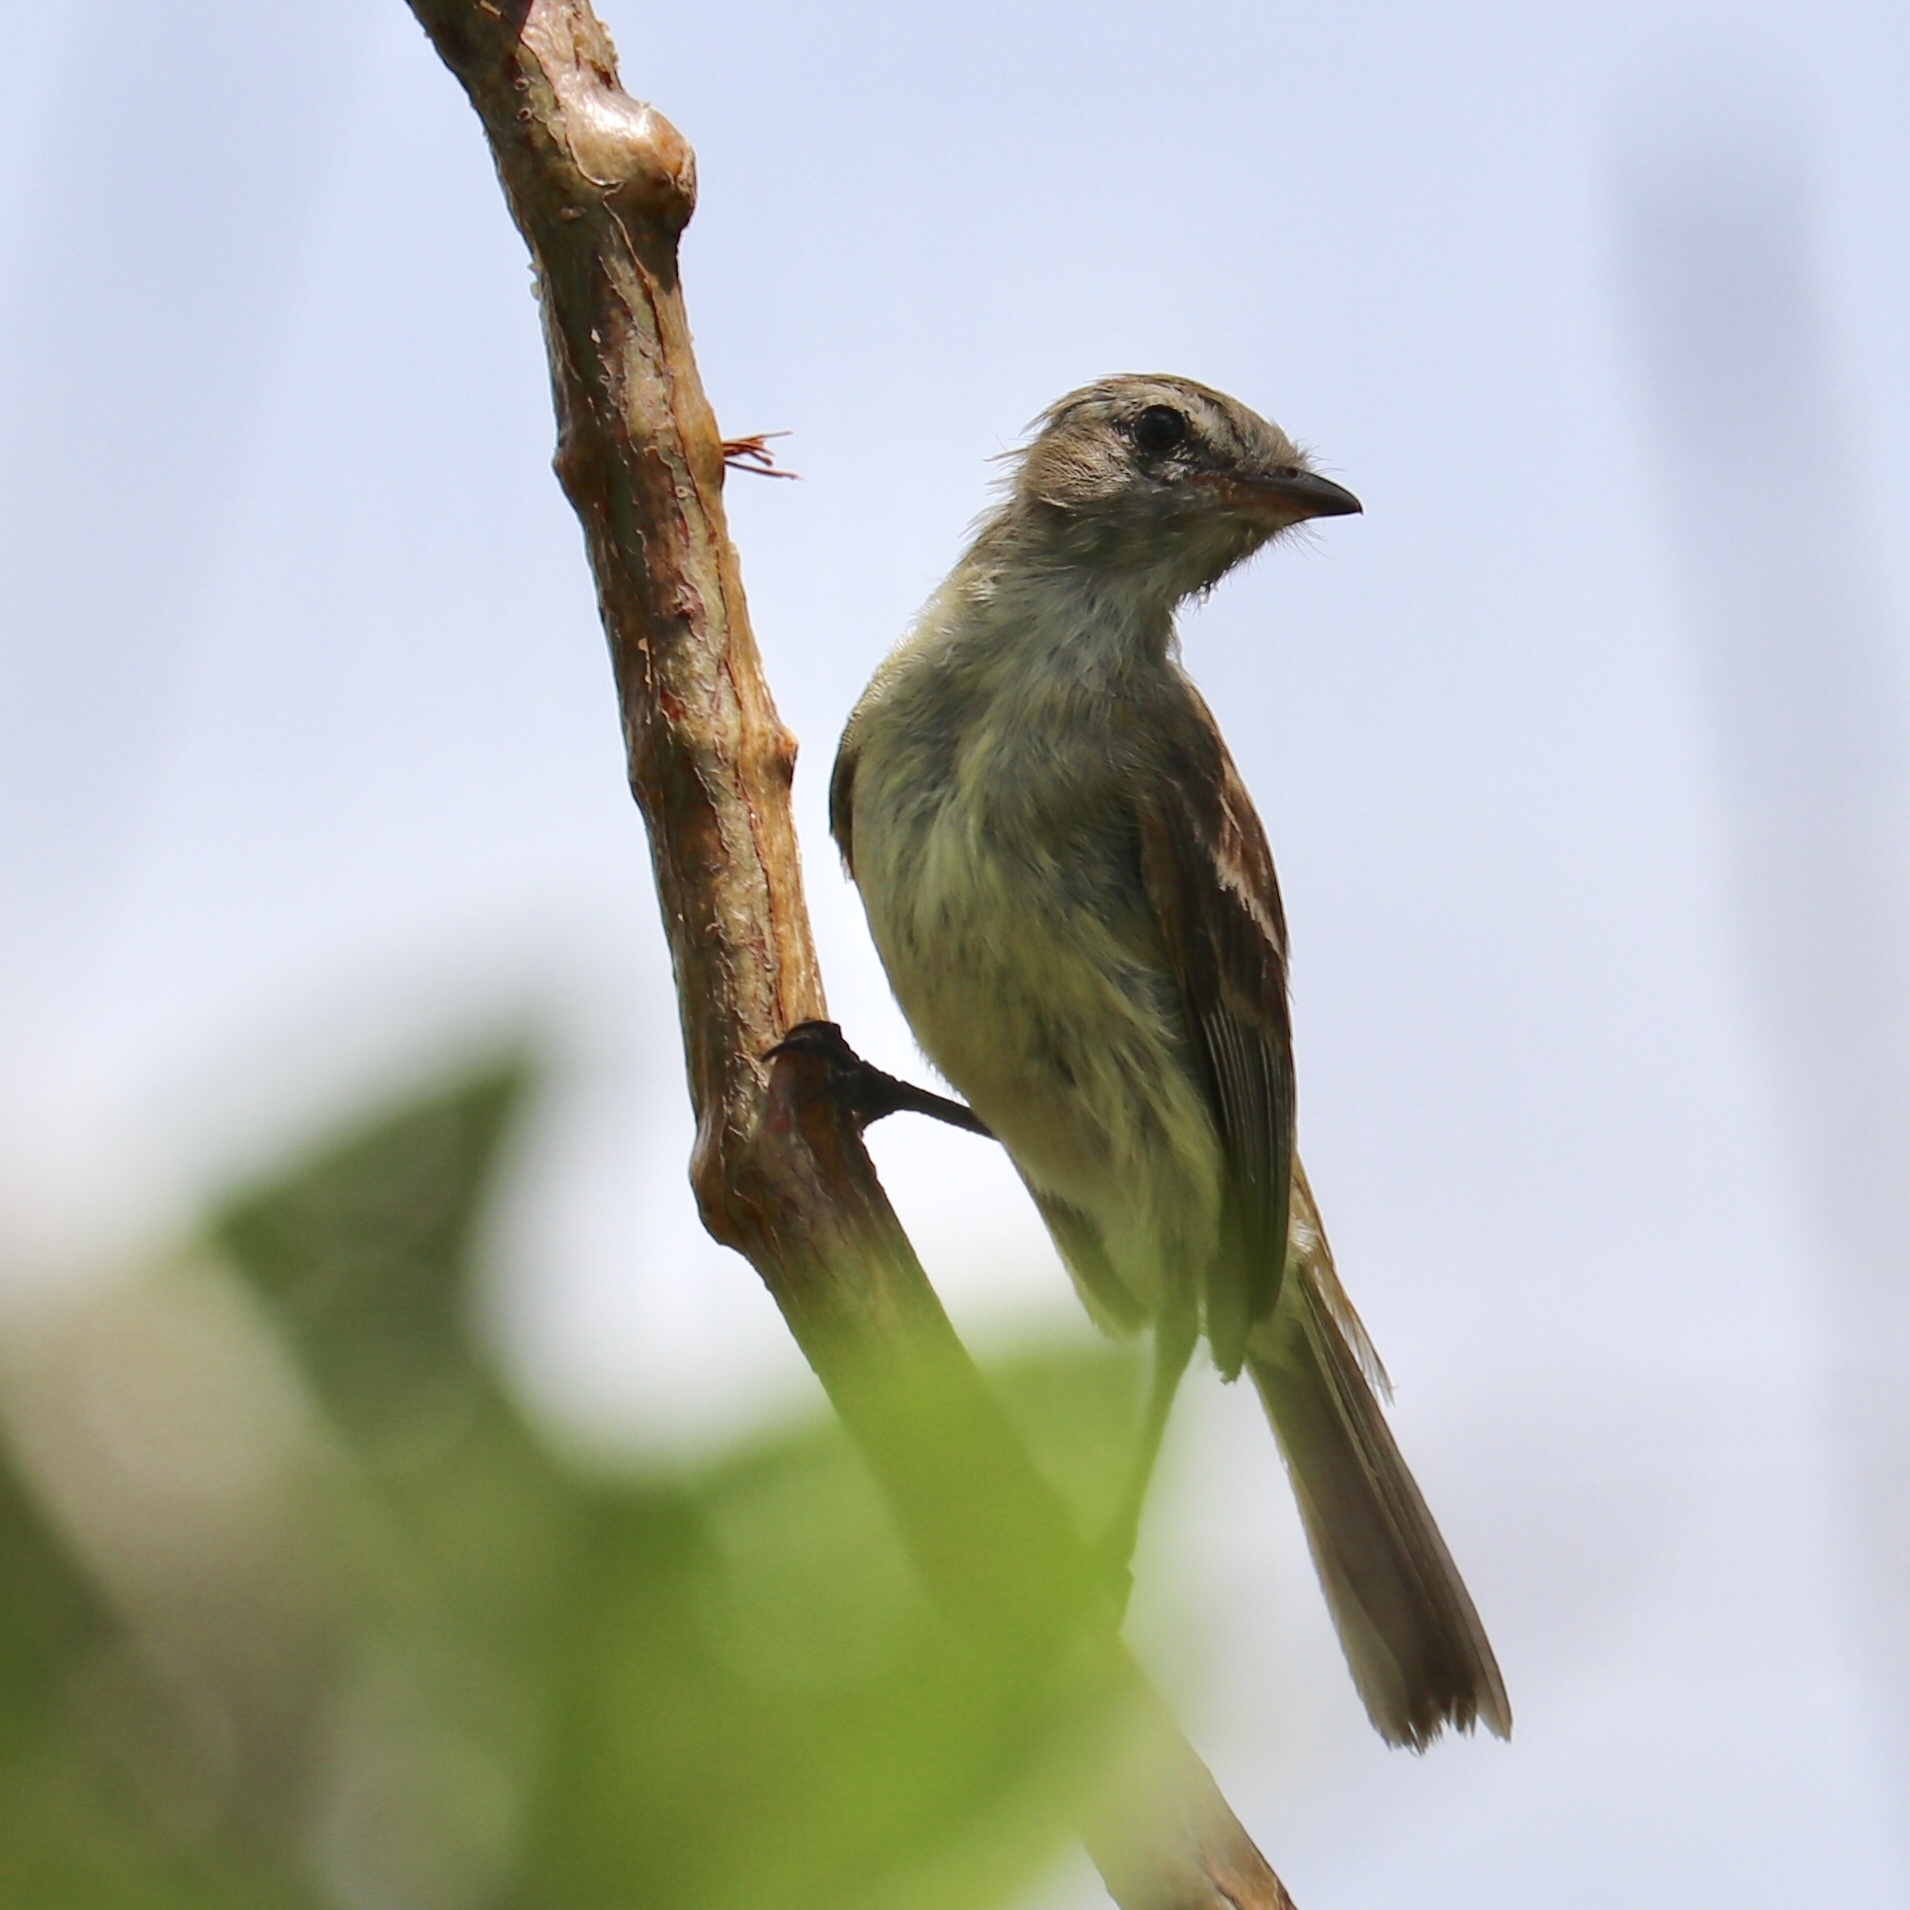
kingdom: Animalia
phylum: Chordata
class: Aves
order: Passeriformes
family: Tyrannidae
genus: Phaeomyias
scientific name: Phaeomyias murina
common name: Mouse-colored tyrannulet
